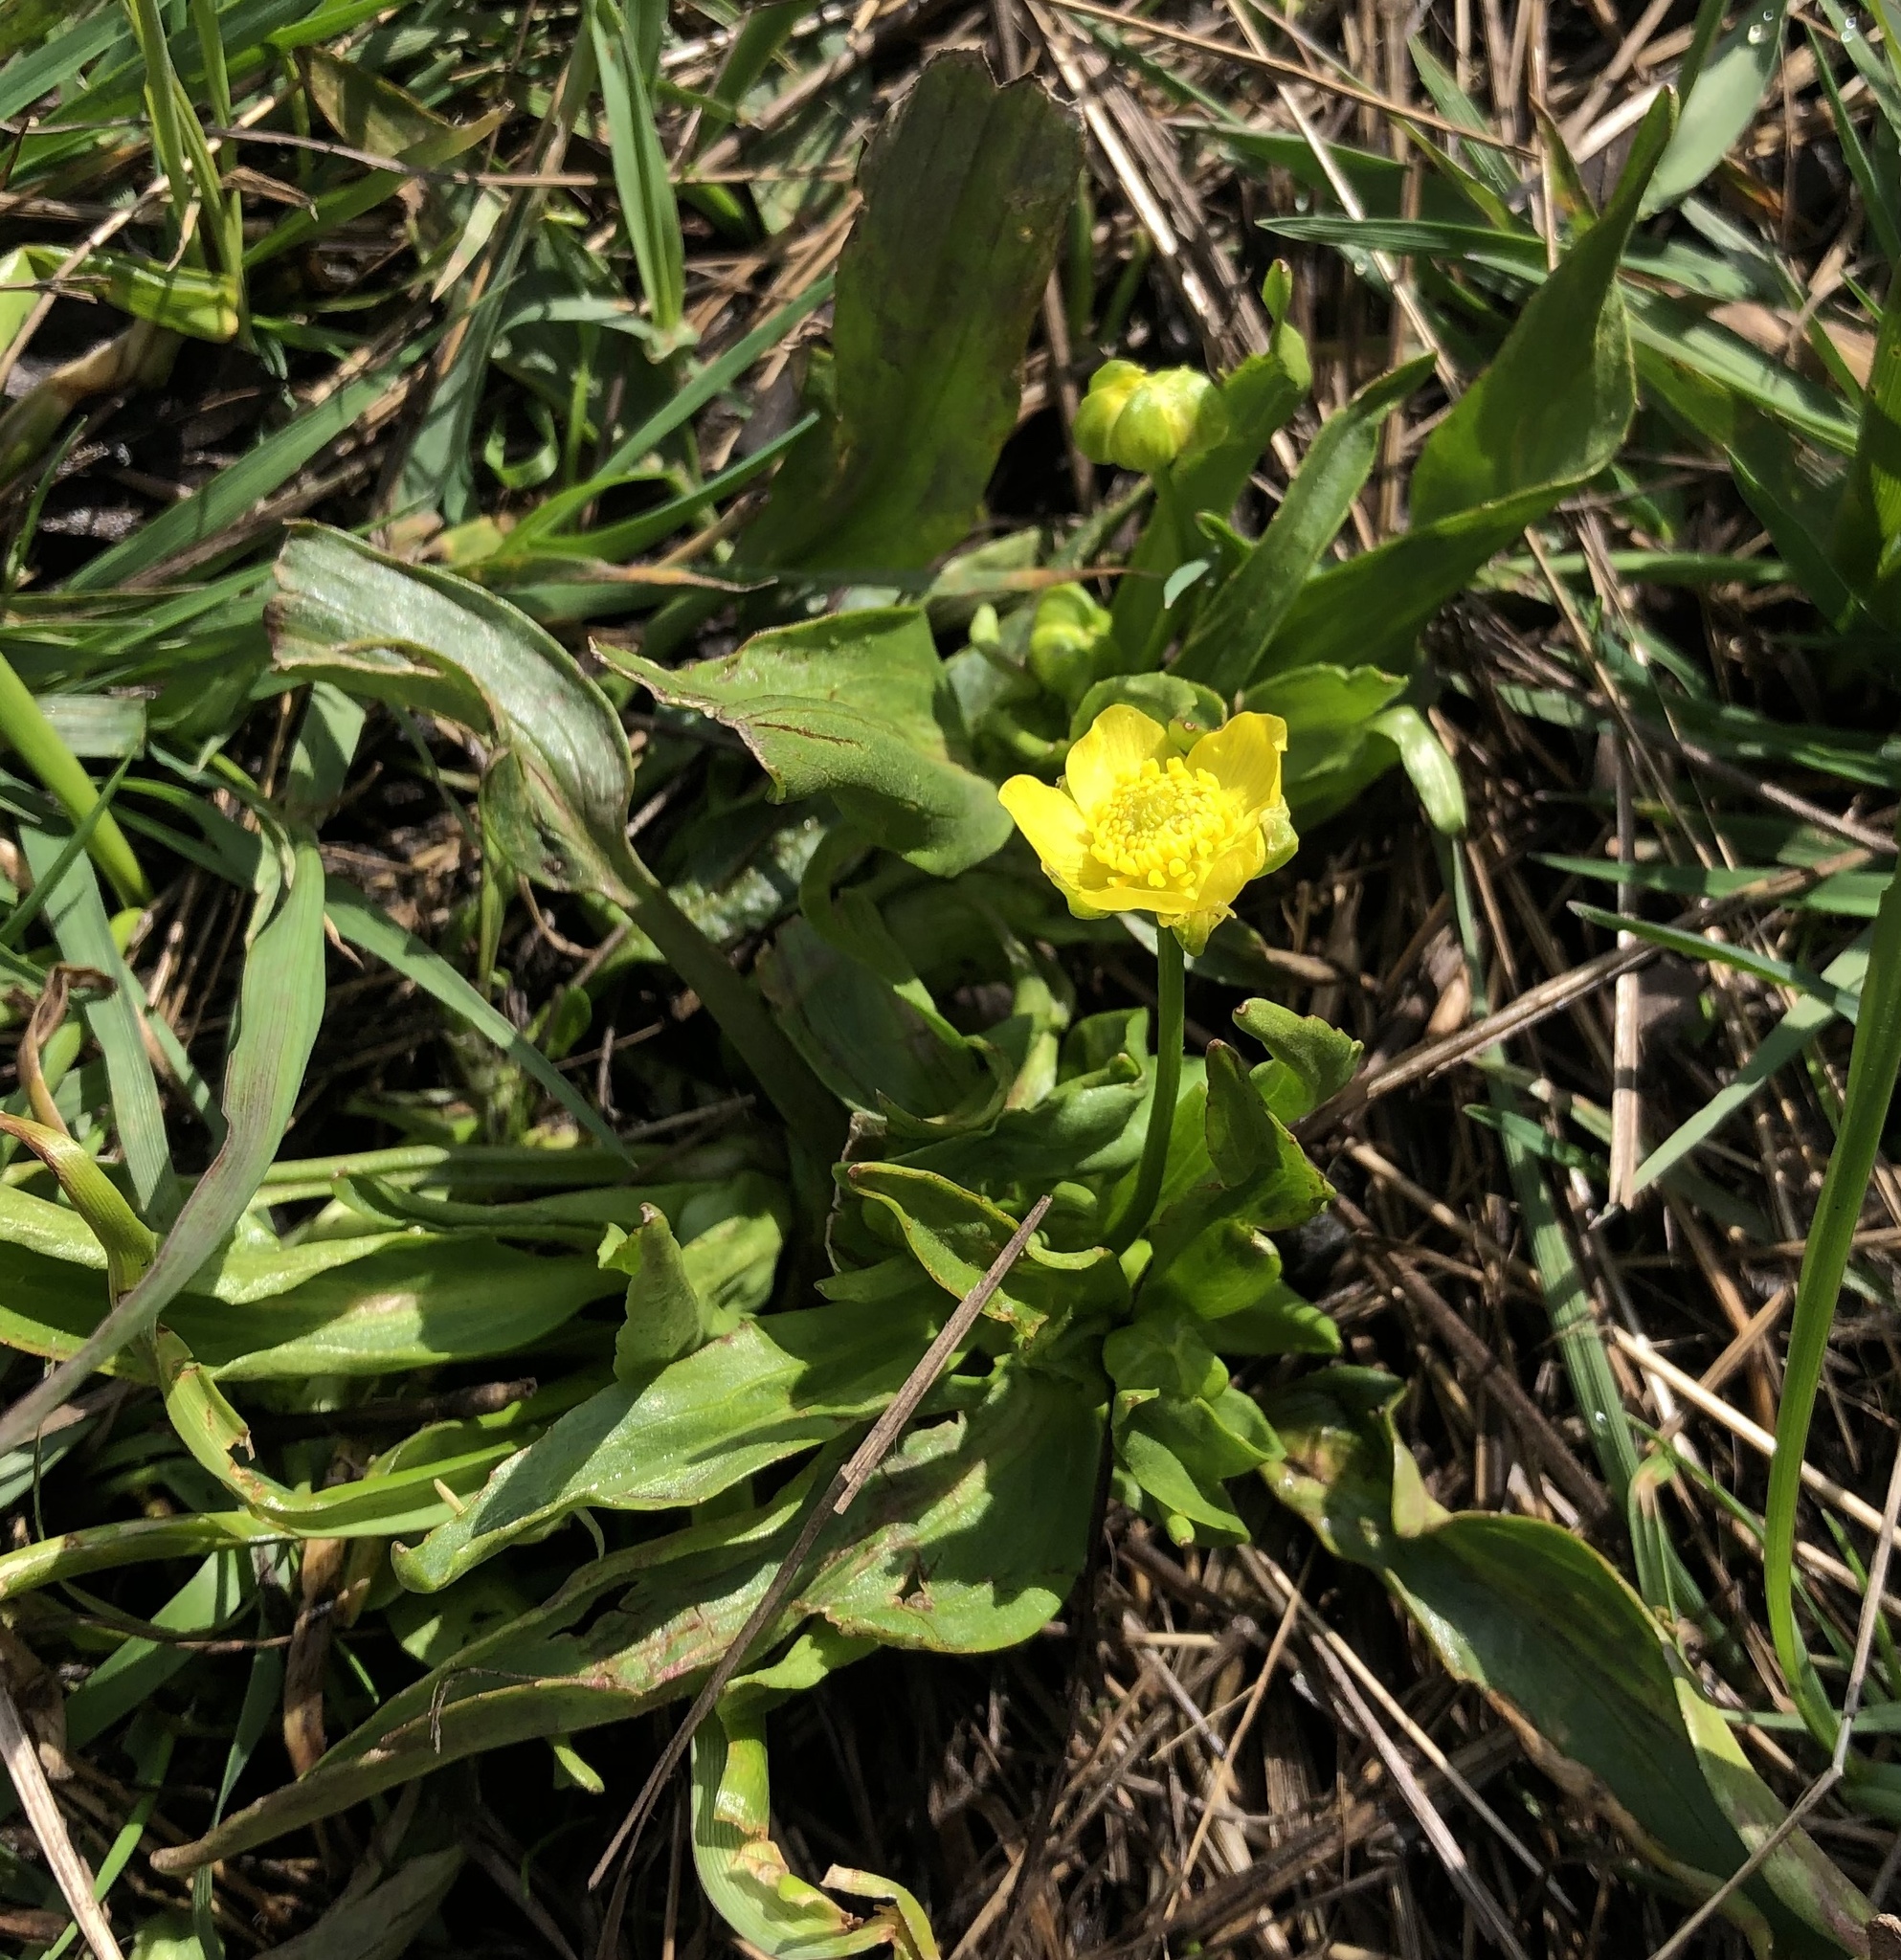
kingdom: Plantae
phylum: Tracheophyta
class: Magnoliopsida
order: Ranunculales
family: Ranunculaceae
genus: Ranunculus
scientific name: Ranunculus alismifolius
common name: Plantain-leaved buttercup
